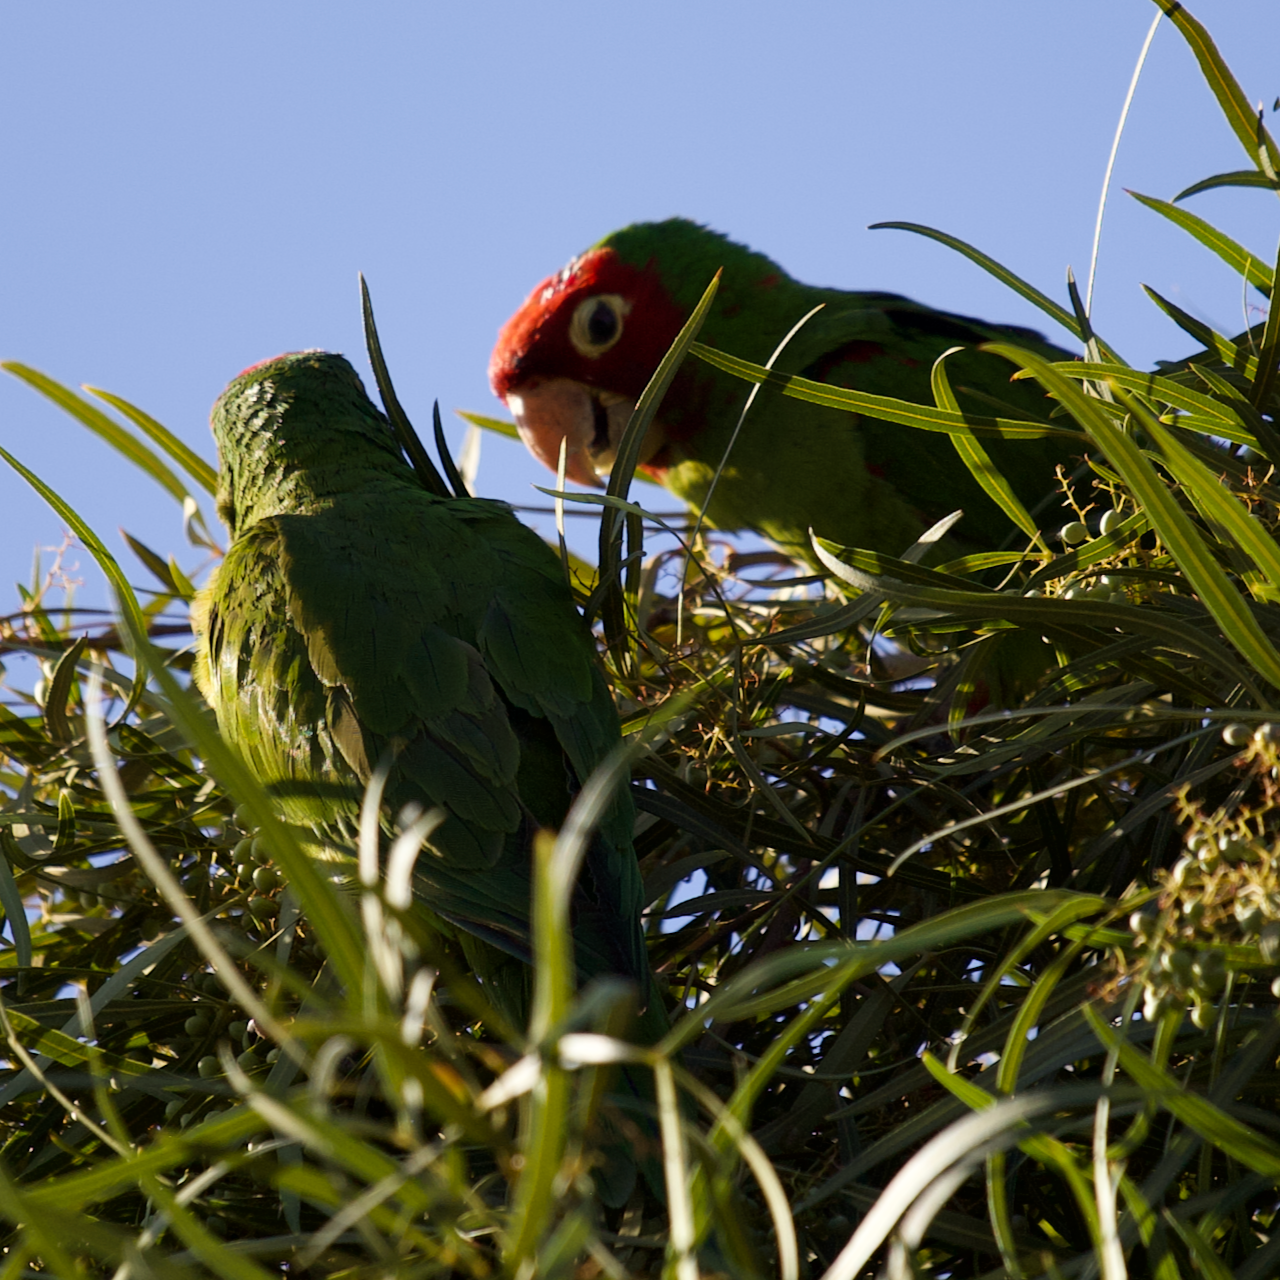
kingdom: Animalia
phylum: Chordata
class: Aves
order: Psittaciformes
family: Psittacidae
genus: Aratinga
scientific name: Aratinga erythrogenys
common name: Red-masked parakeet
